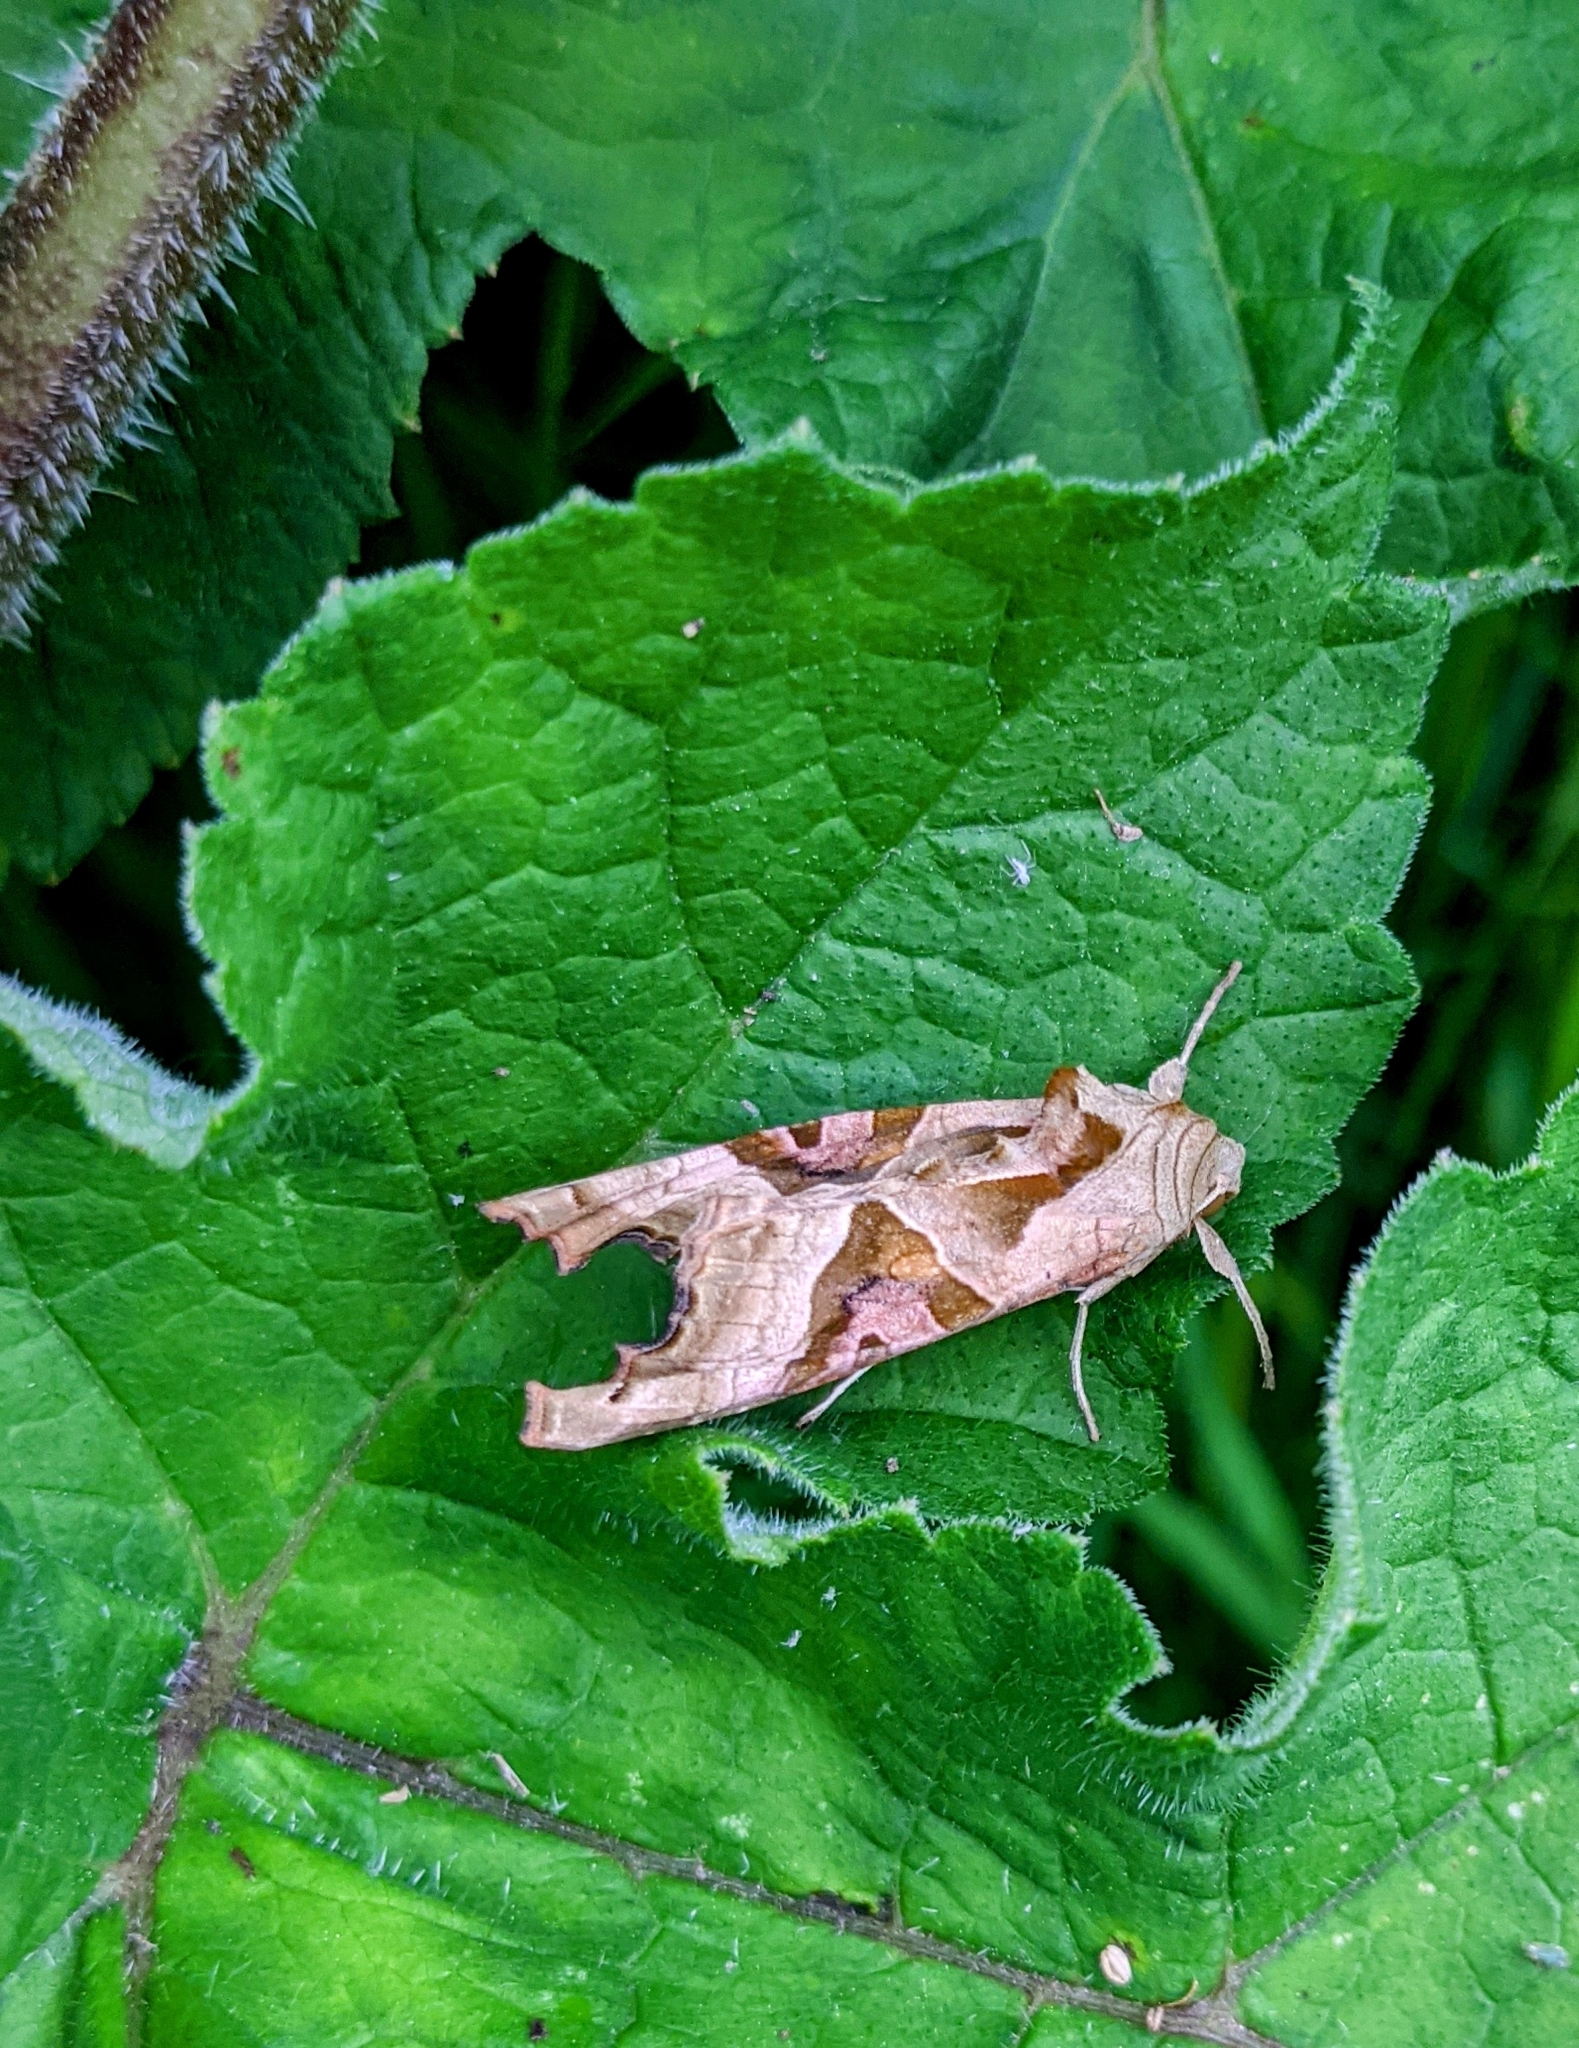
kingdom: Animalia
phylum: Arthropoda
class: Insecta
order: Lepidoptera
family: Noctuidae
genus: Phlogophora
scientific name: Phlogophora meticulosa
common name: Angle shades
